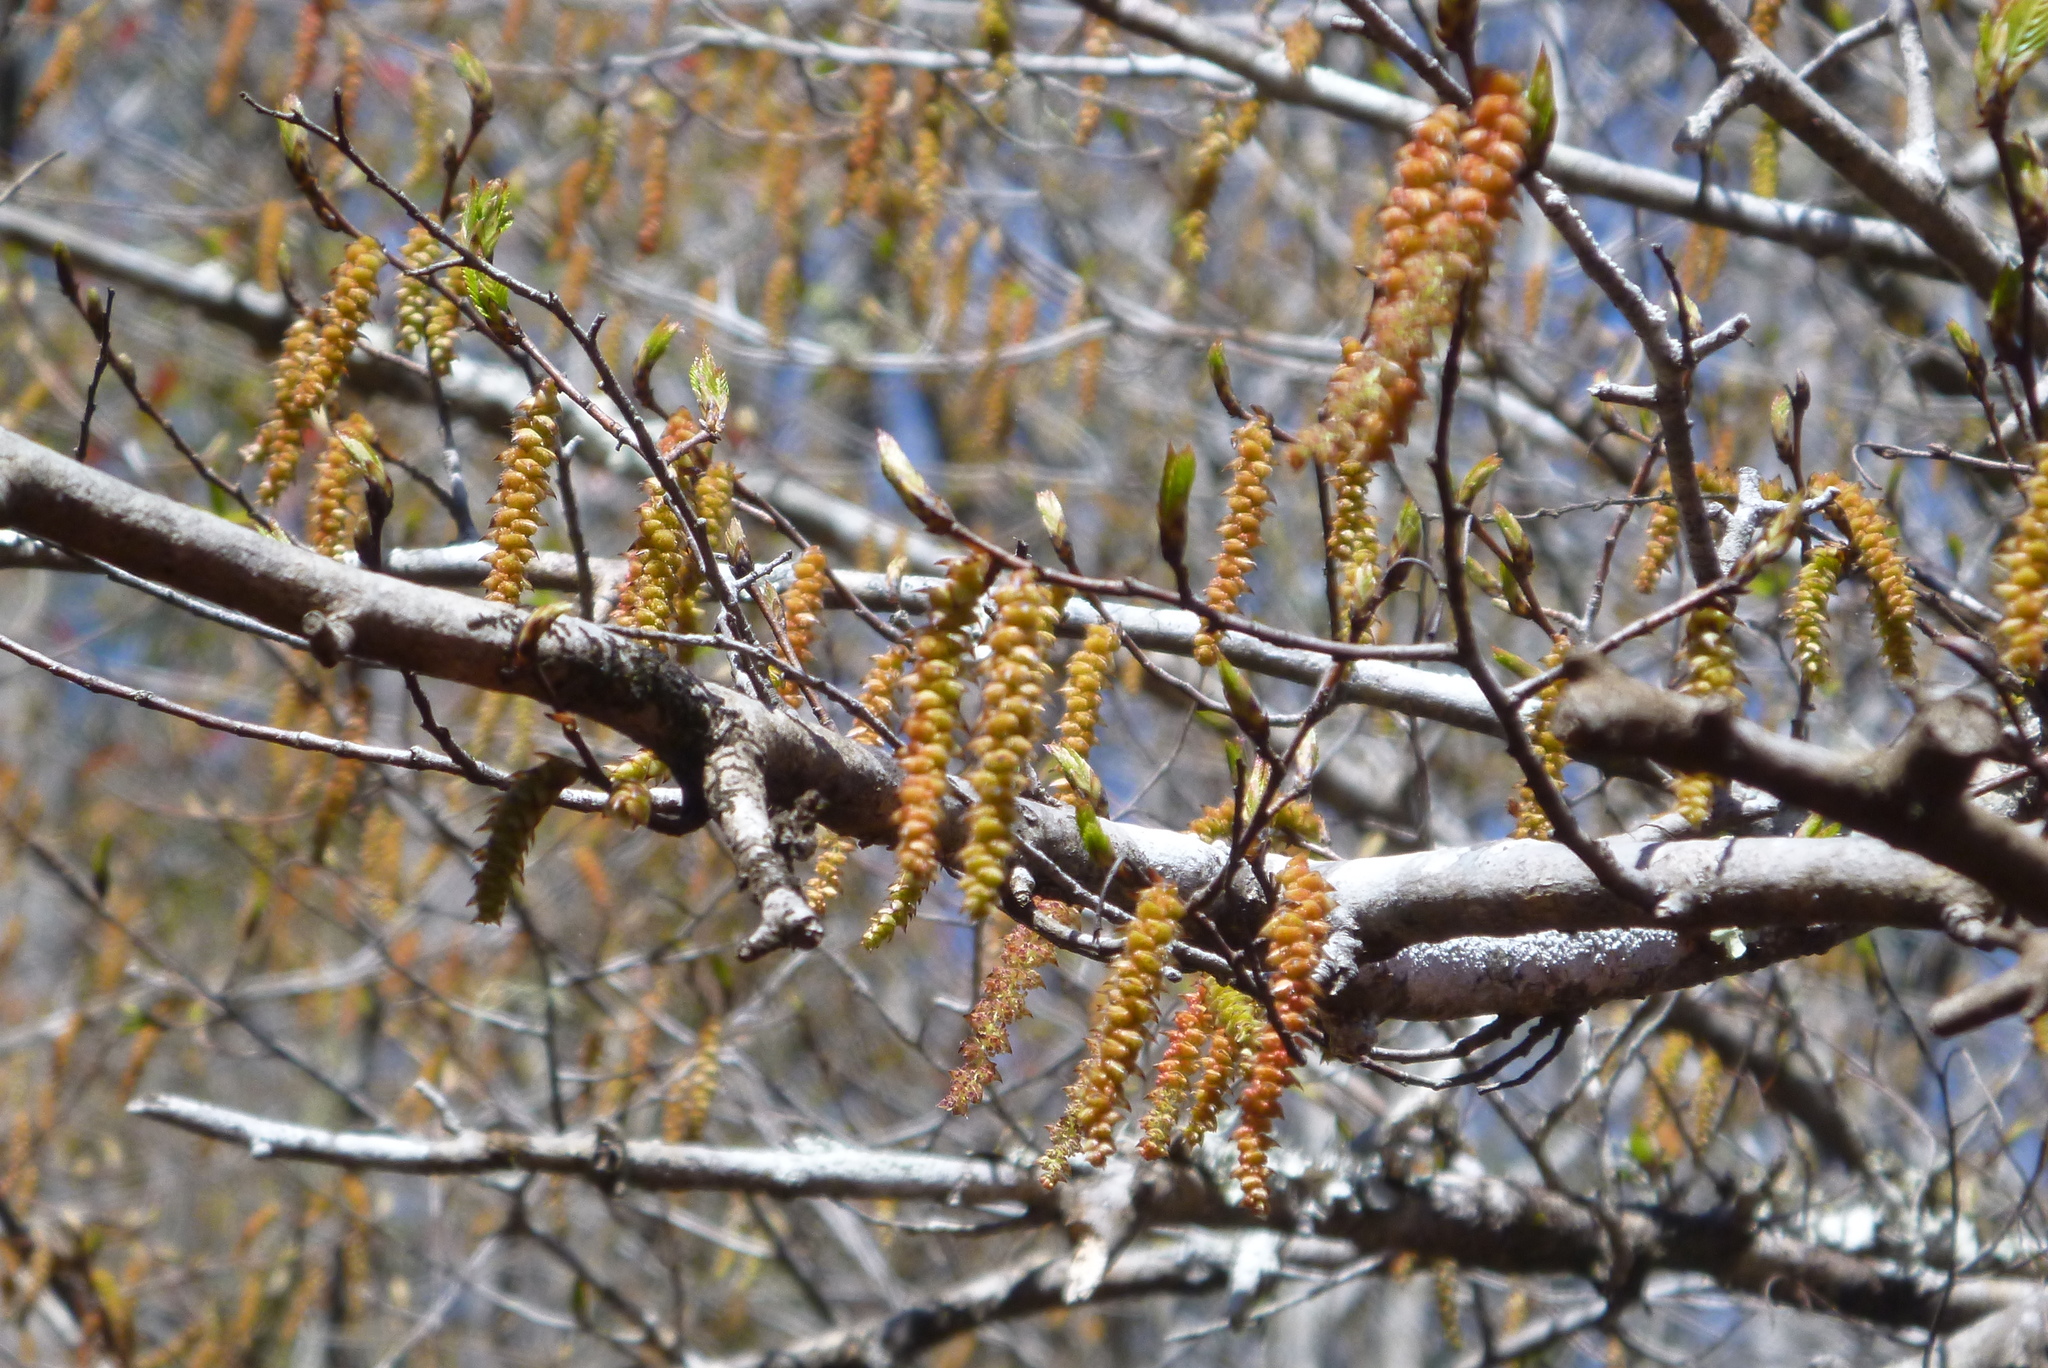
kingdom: Plantae
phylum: Tracheophyta
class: Magnoliopsida
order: Fagales
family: Betulaceae
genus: Carpinus
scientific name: Carpinus caroliniana
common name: American hornbeam
